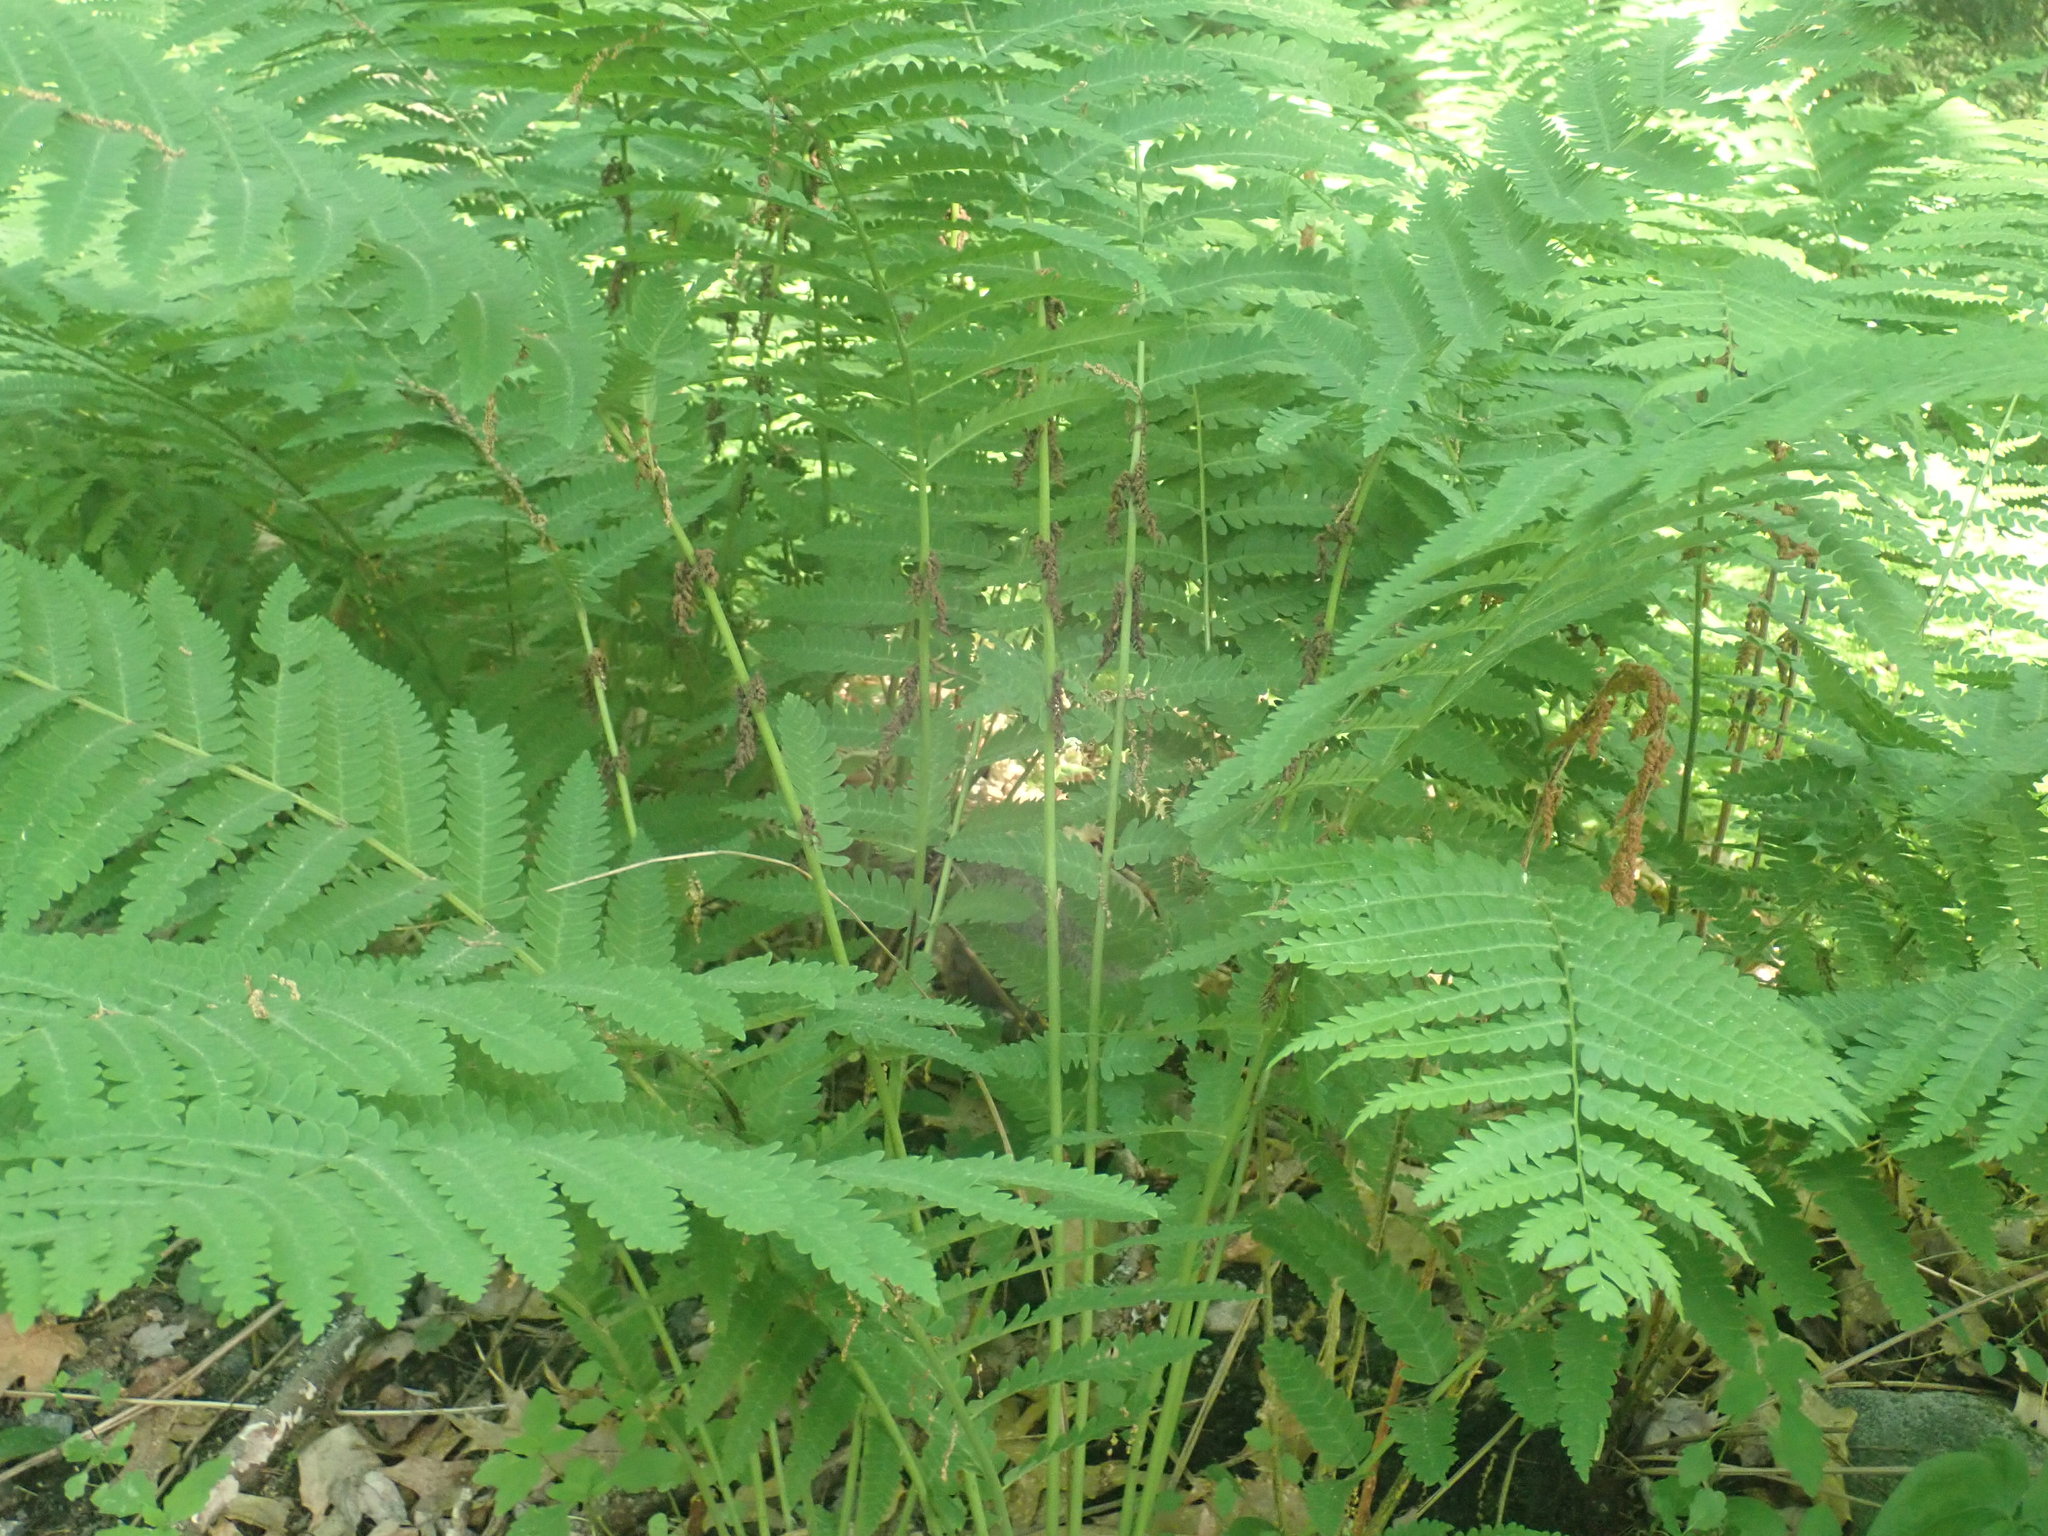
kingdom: Plantae
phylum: Tracheophyta
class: Polypodiopsida
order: Osmundales
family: Osmundaceae
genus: Claytosmunda
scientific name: Claytosmunda claytoniana
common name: Clayton's fern
